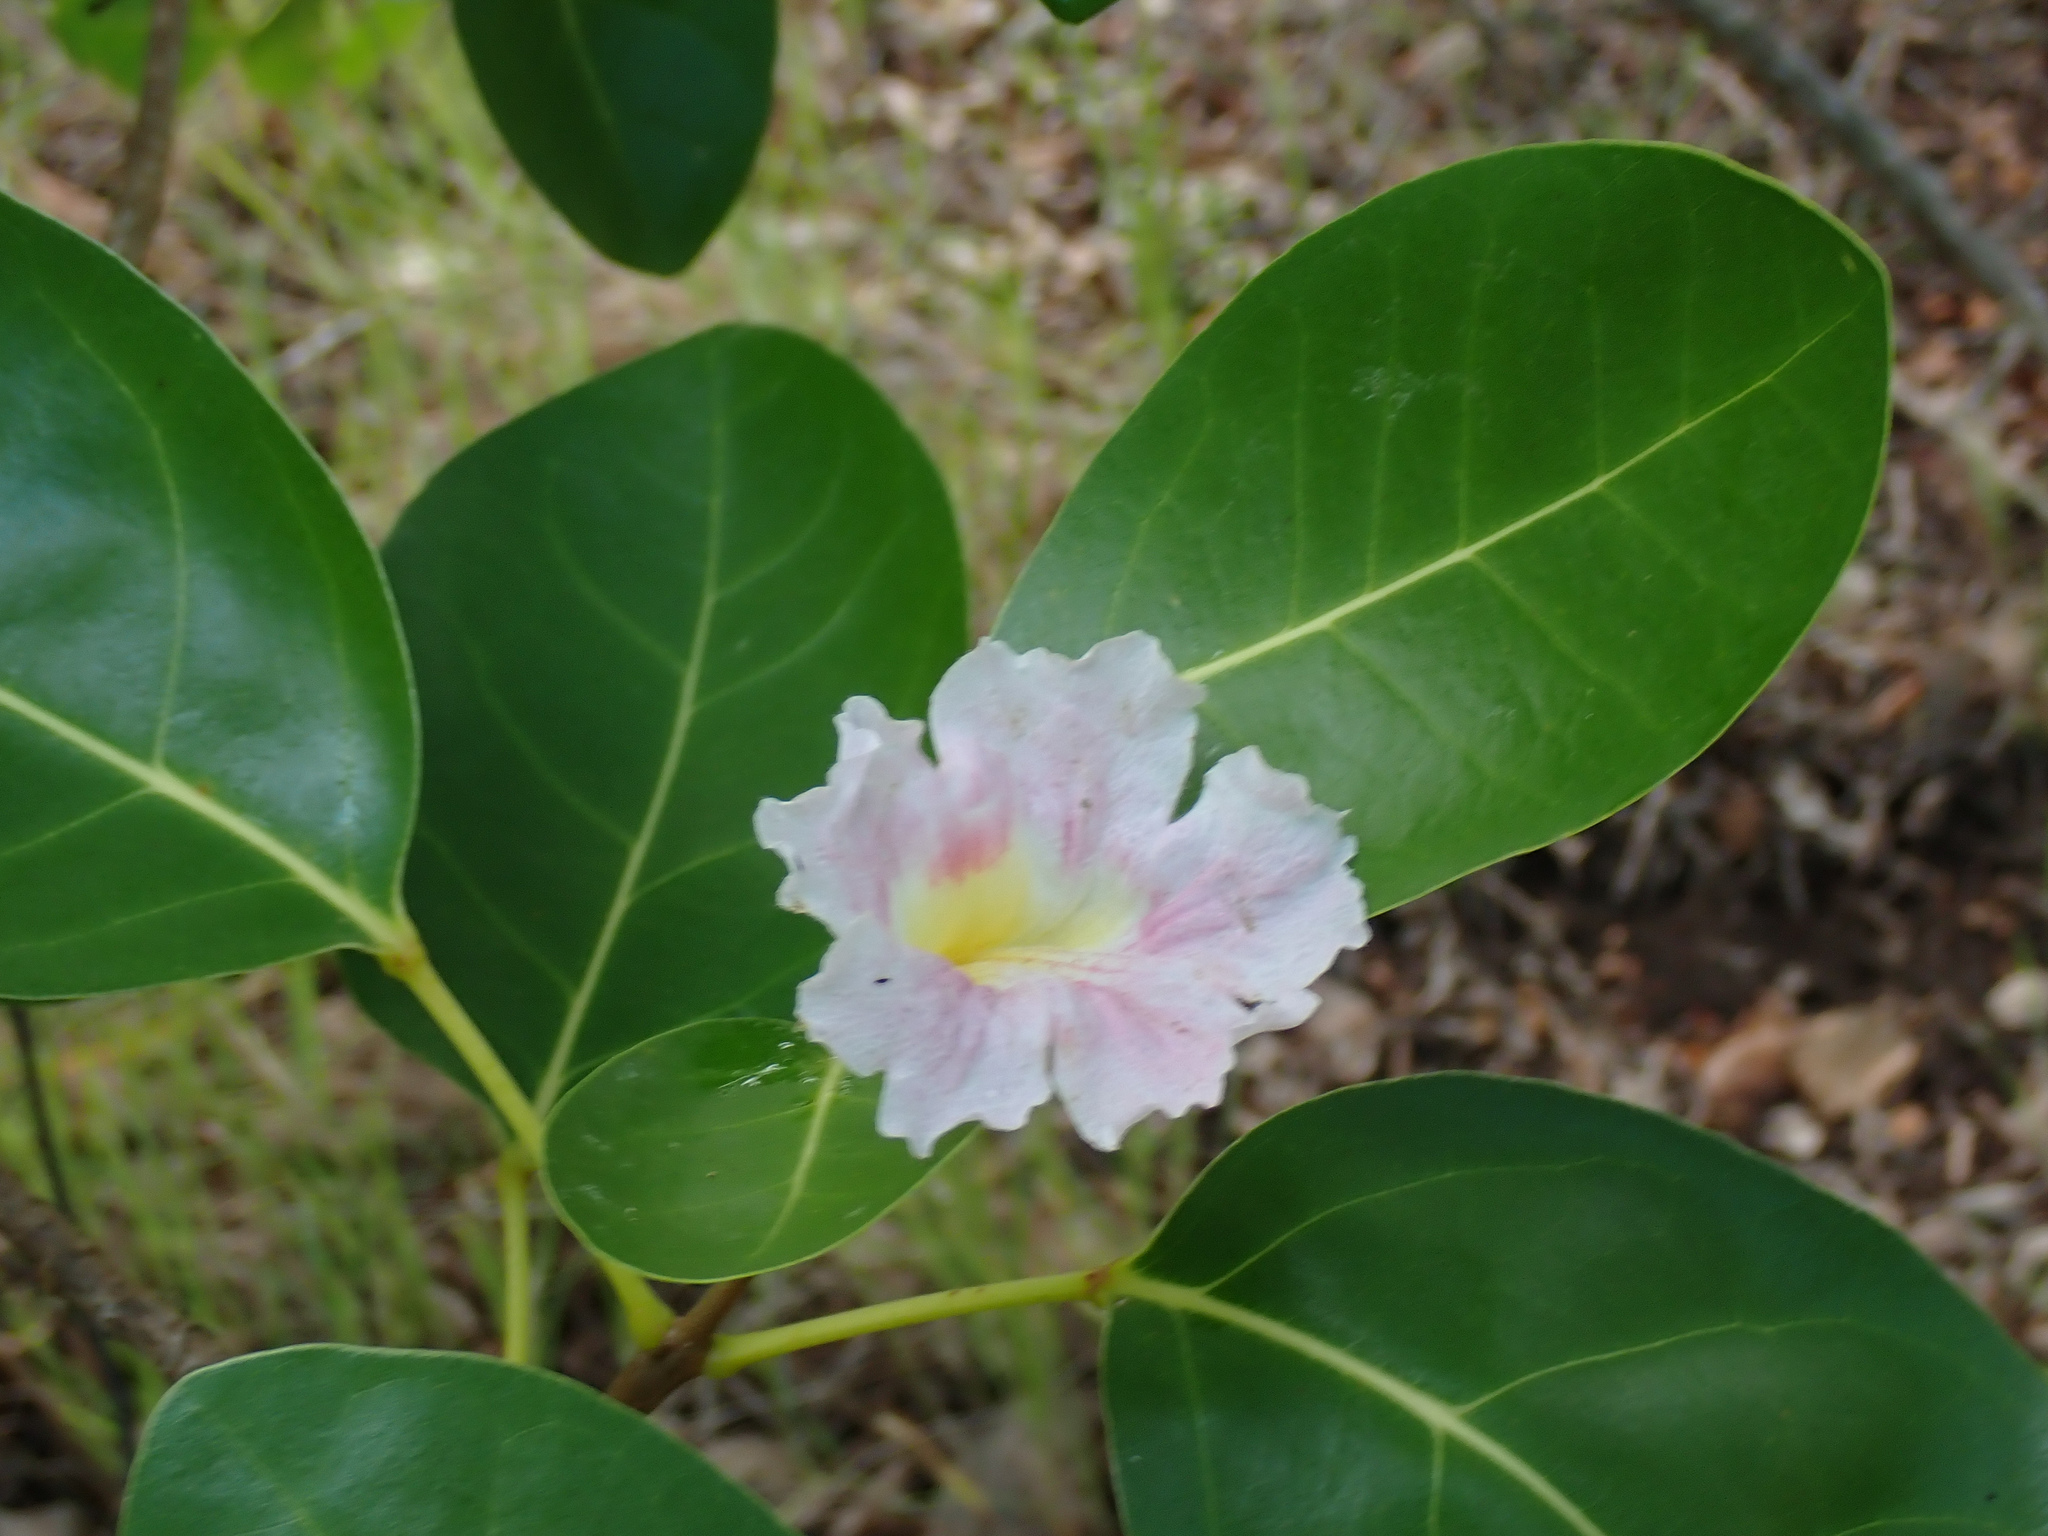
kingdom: Plantae
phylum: Tracheophyta
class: Magnoliopsida
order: Lamiales
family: Bignoniaceae
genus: Tabebuia
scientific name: Tabebuia pallida
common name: Cuban pink trumpet-tree
